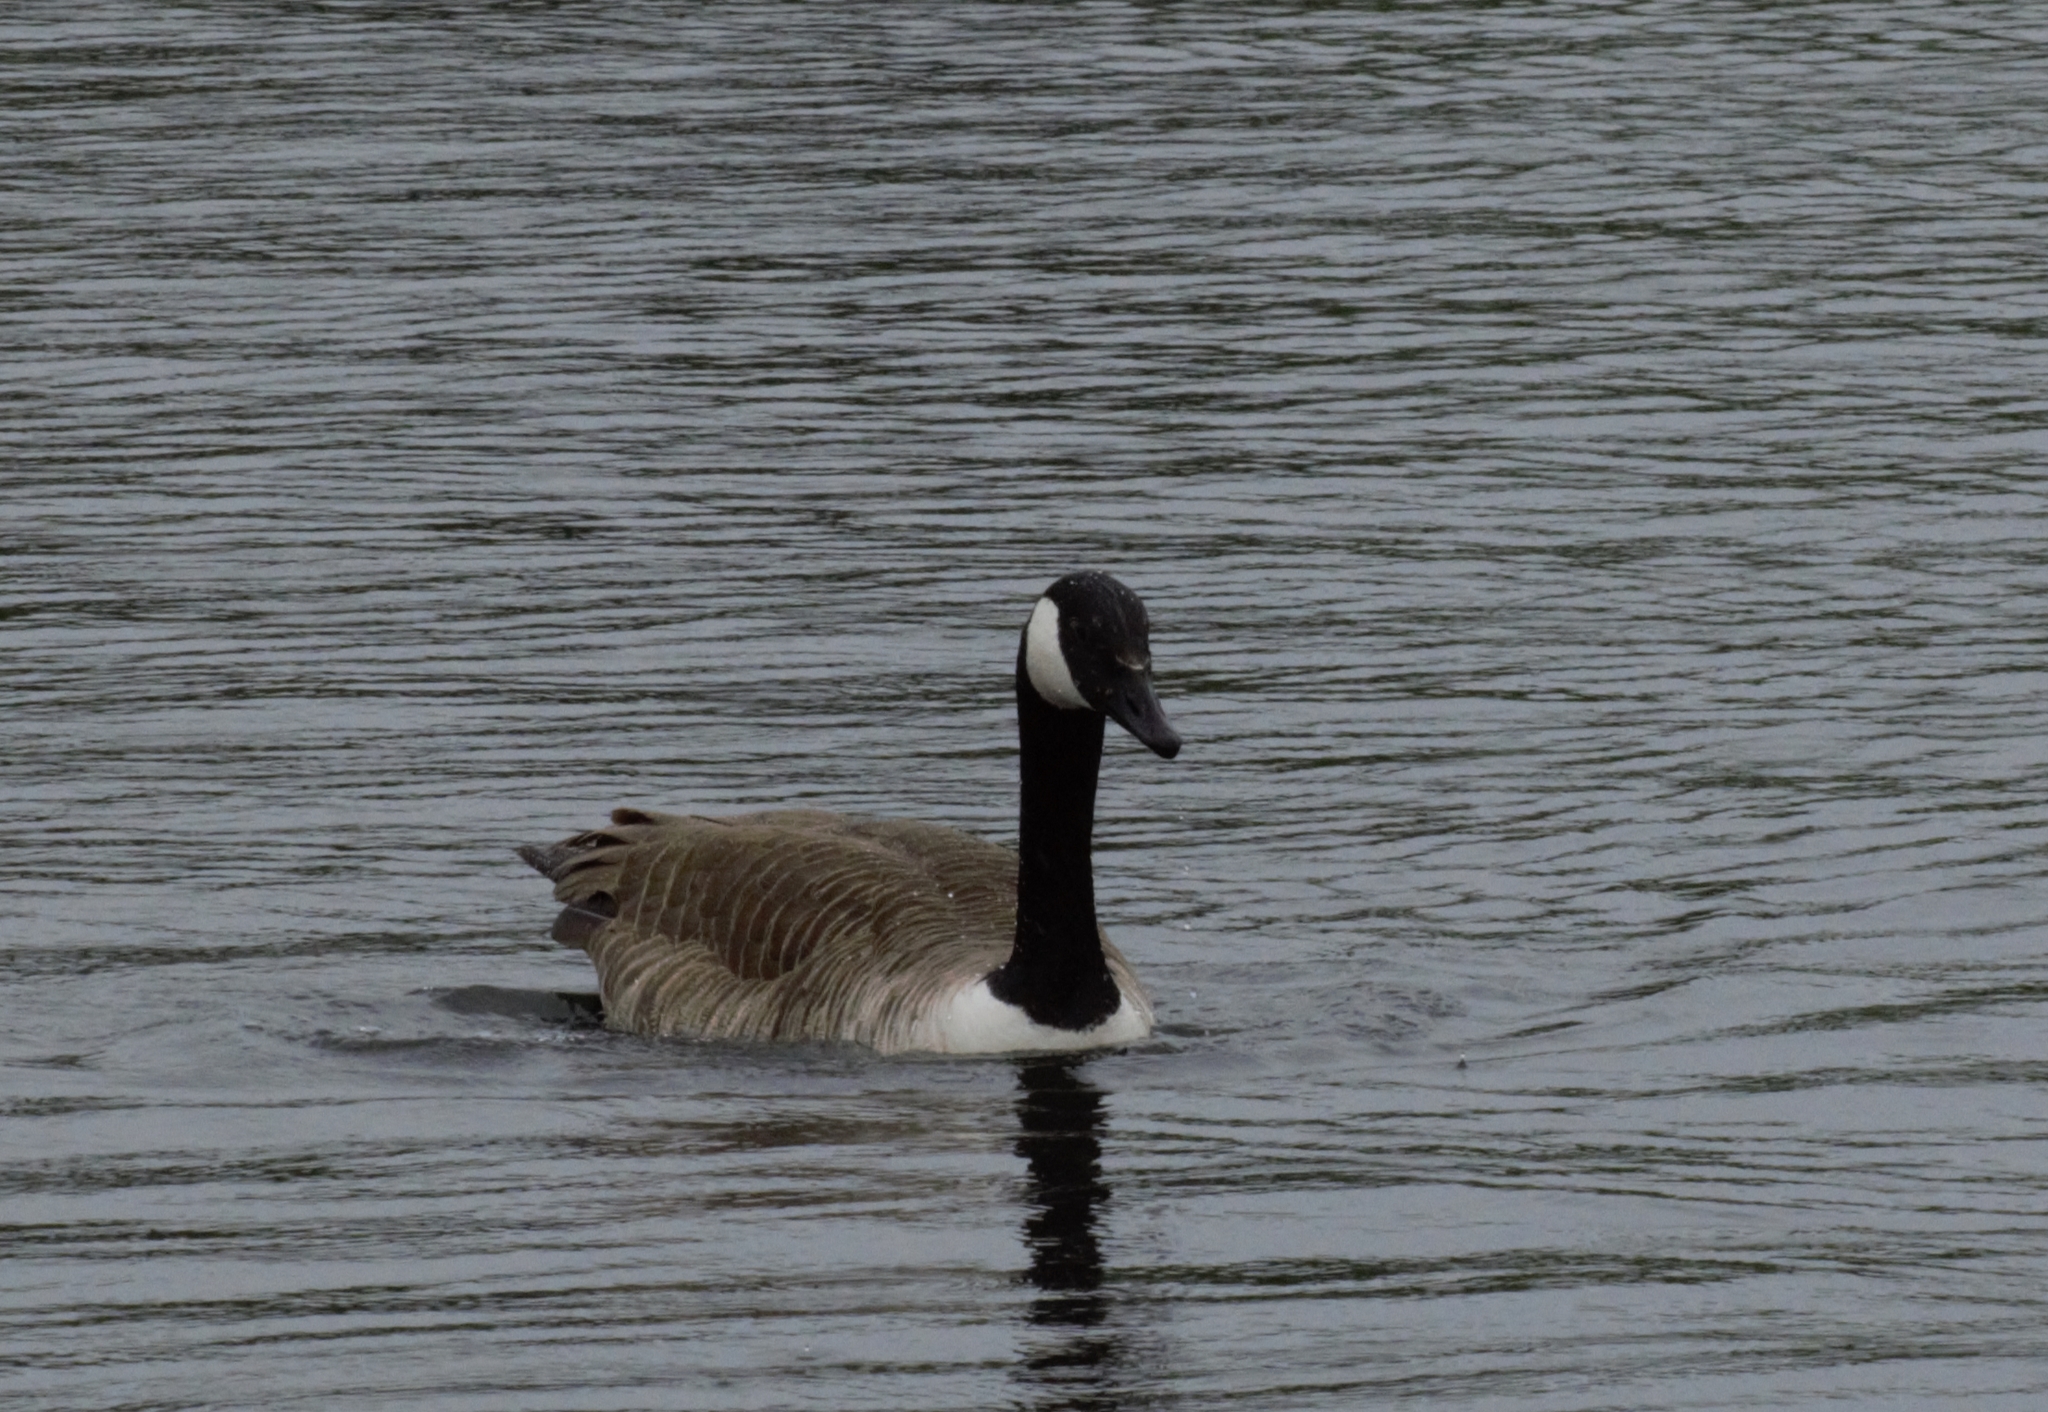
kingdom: Animalia
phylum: Chordata
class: Aves
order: Anseriformes
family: Anatidae
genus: Branta
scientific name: Branta canadensis
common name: Canada goose
